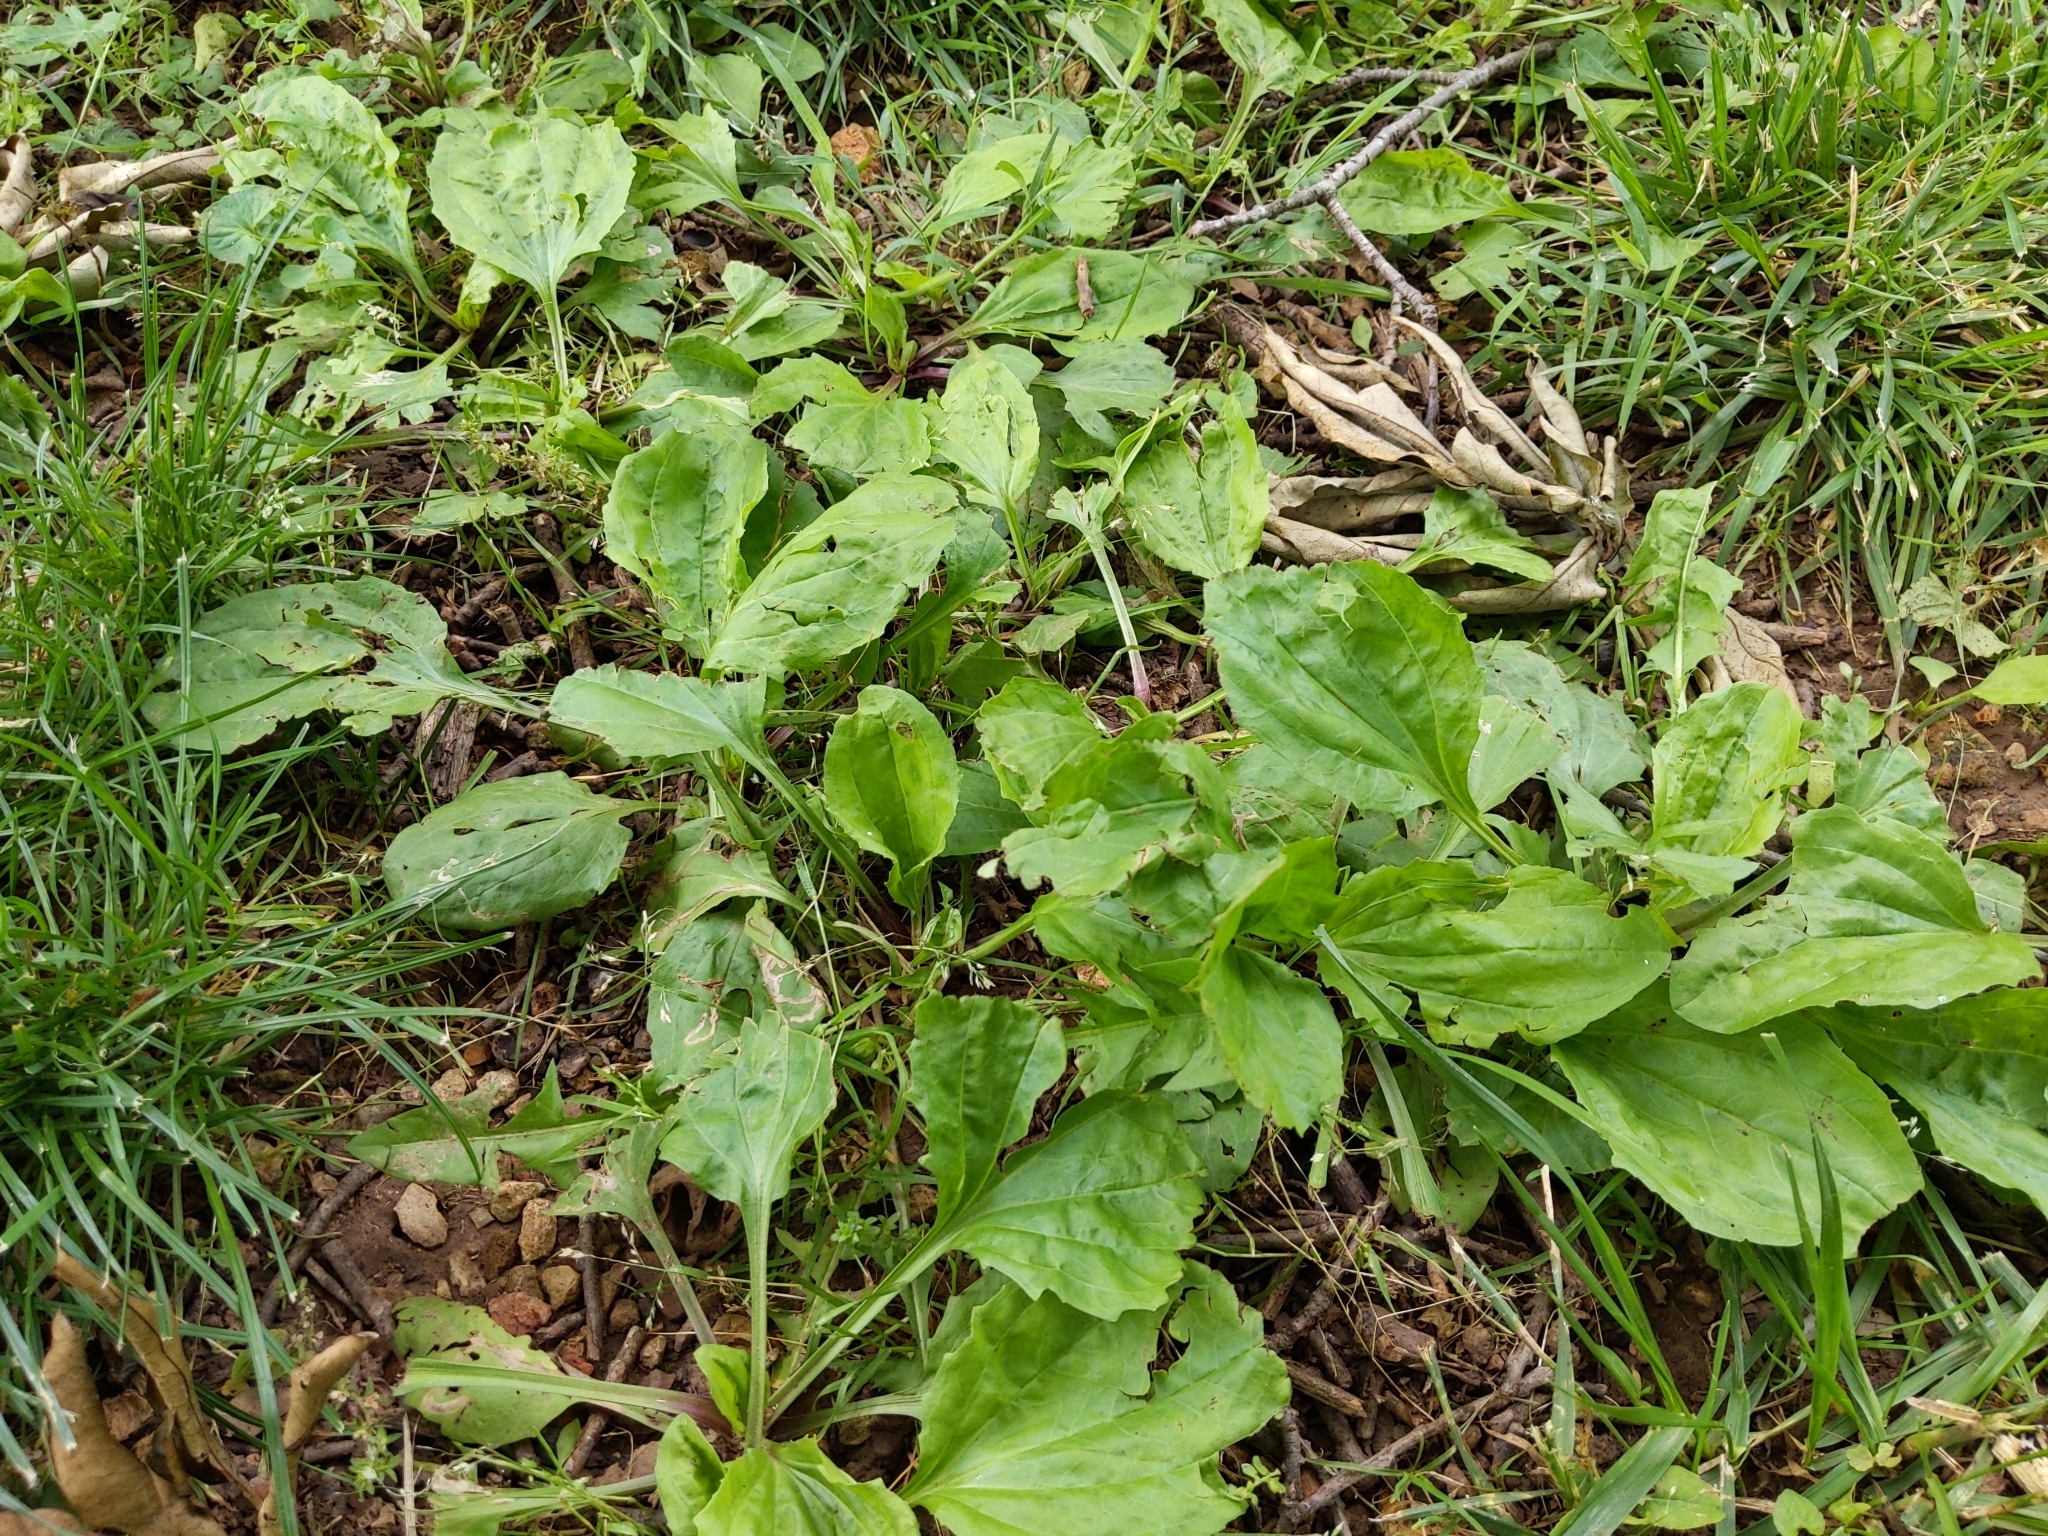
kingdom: Plantae
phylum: Tracheophyta
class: Magnoliopsida
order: Lamiales
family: Plantaginaceae
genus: Plantago
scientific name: Plantago rugelii
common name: American plantain
